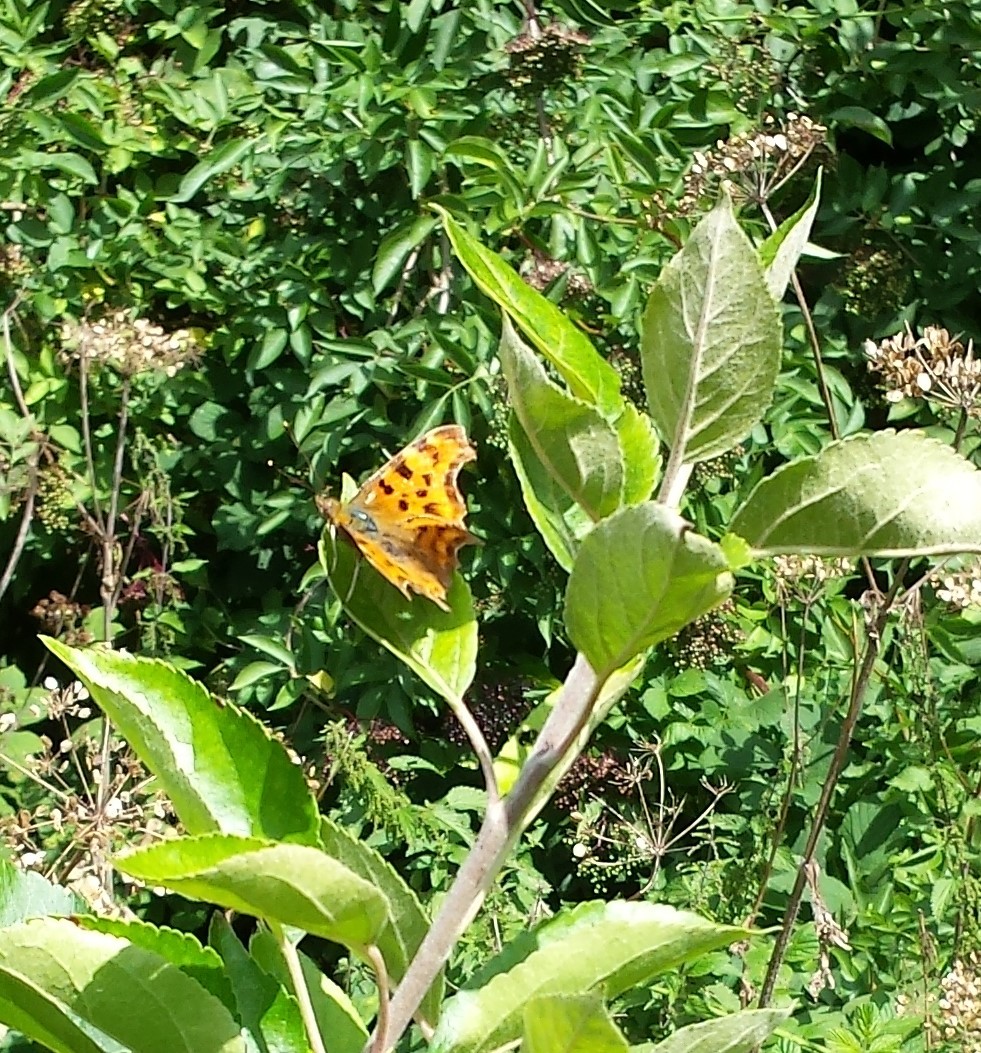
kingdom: Animalia
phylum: Arthropoda
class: Insecta
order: Lepidoptera
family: Nymphalidae
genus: Polygonia
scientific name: Polygonia c-album
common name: Comma
